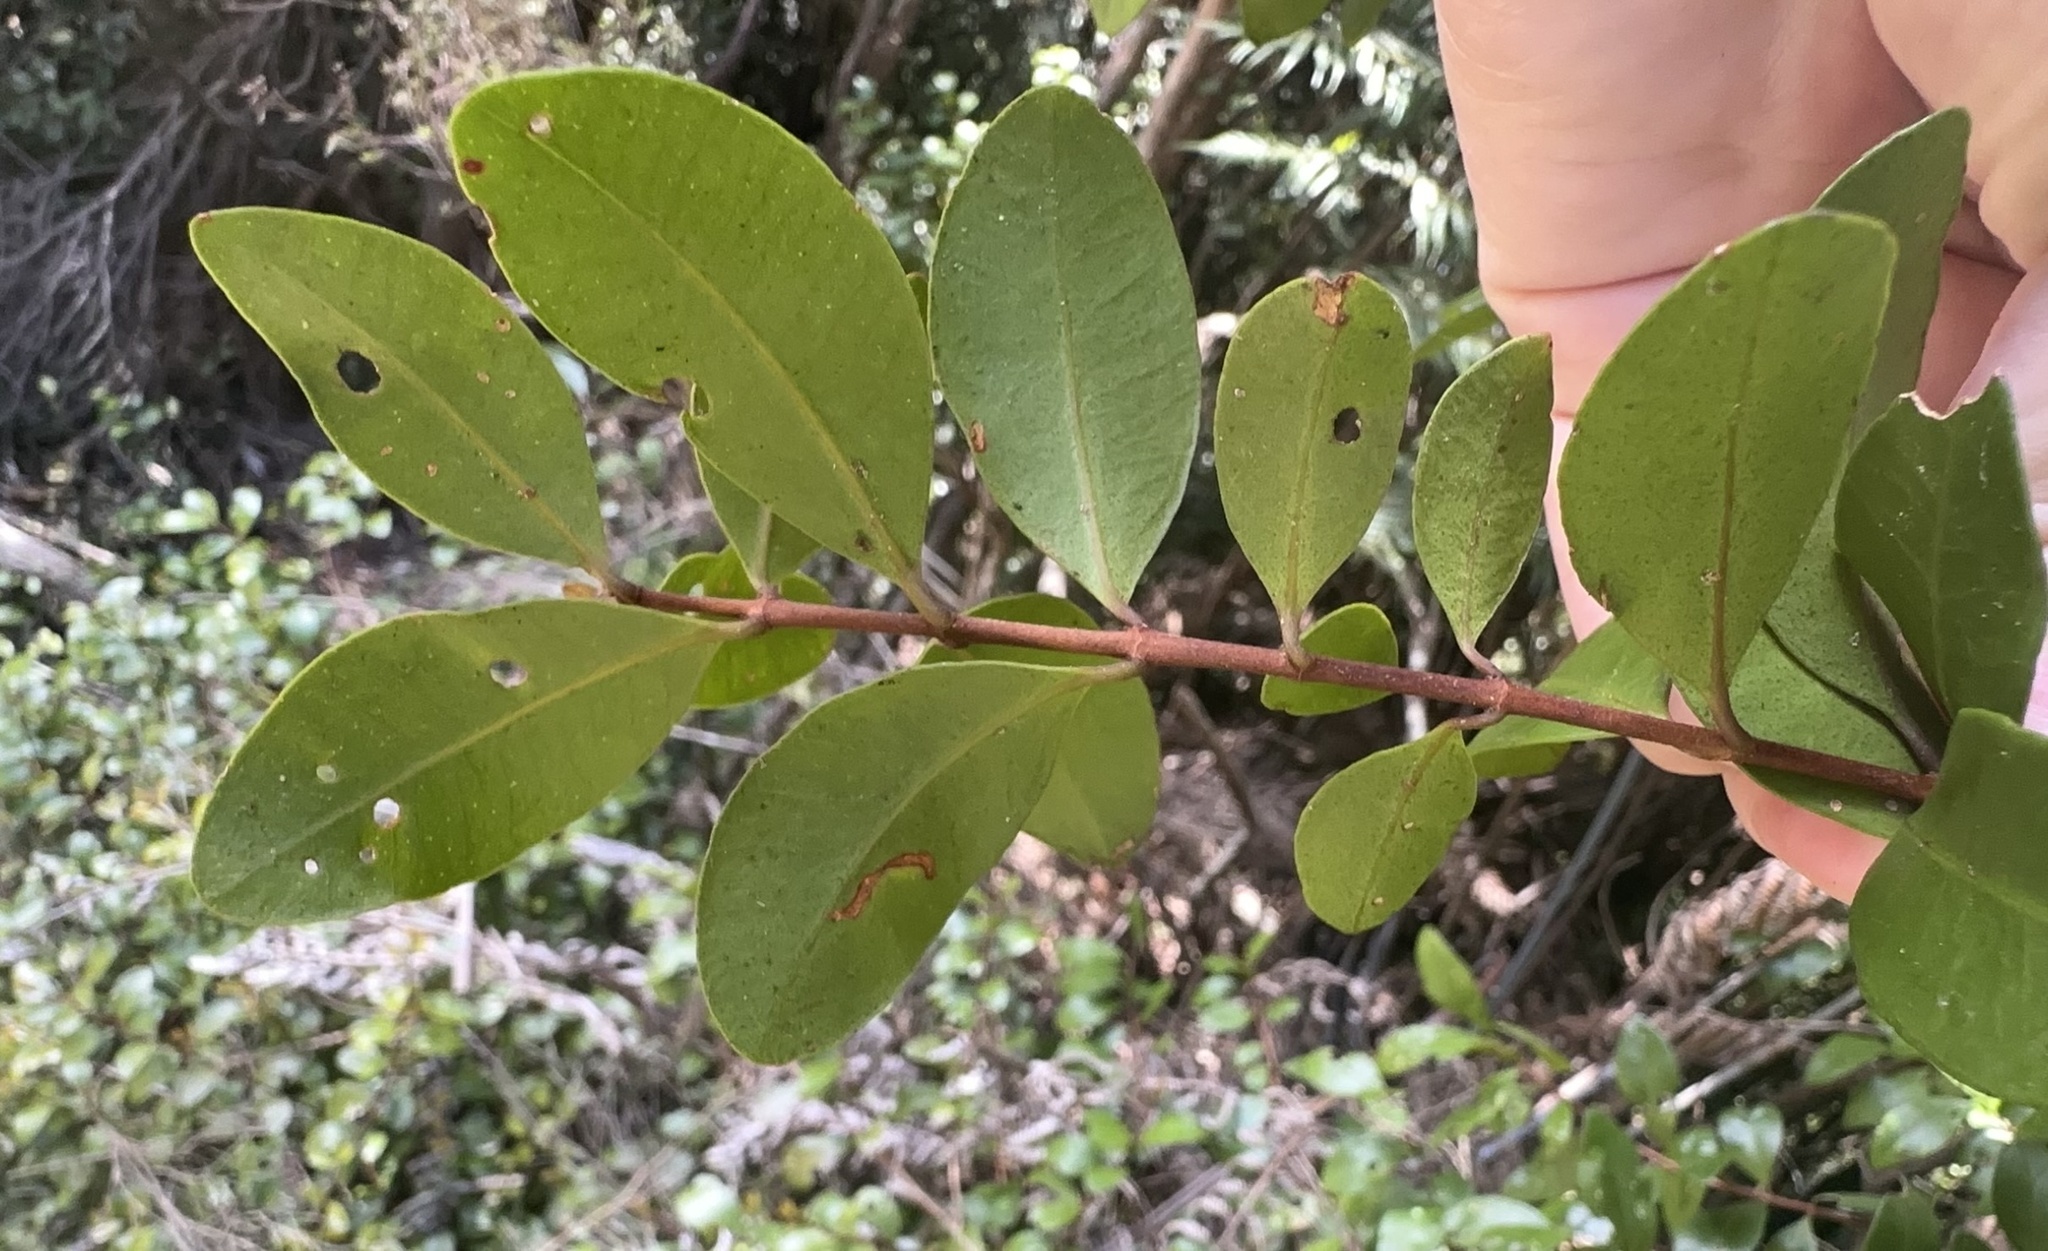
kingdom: Plantae
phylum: Tracheophyta
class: Magnoliopsida
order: Myrtales
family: Myrtaceae
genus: Metrosideros
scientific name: Metrosideros fulgens
